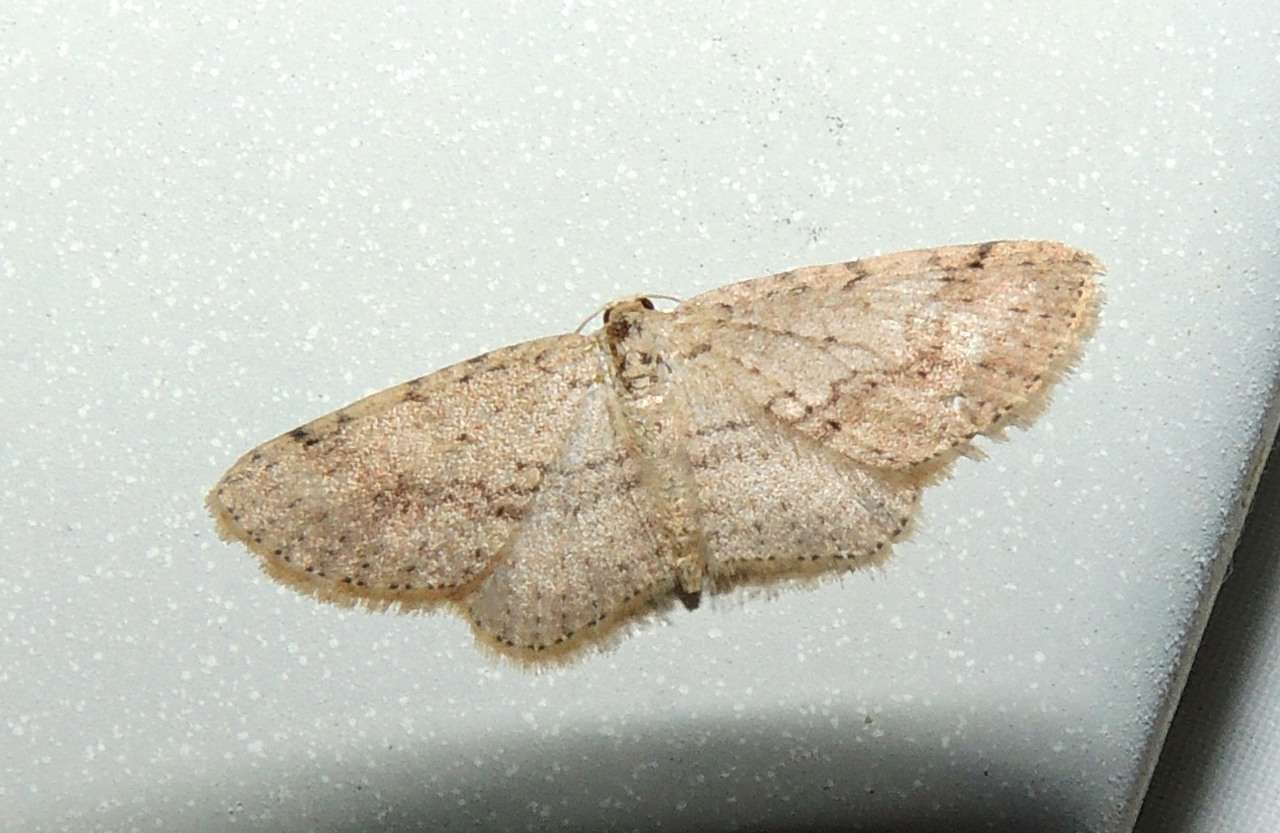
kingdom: Animalia
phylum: Arthropoda
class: Insecta
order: Lepidoptera
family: Geometridae
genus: Poecilasthena
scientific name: Poecilasthena scoliota
